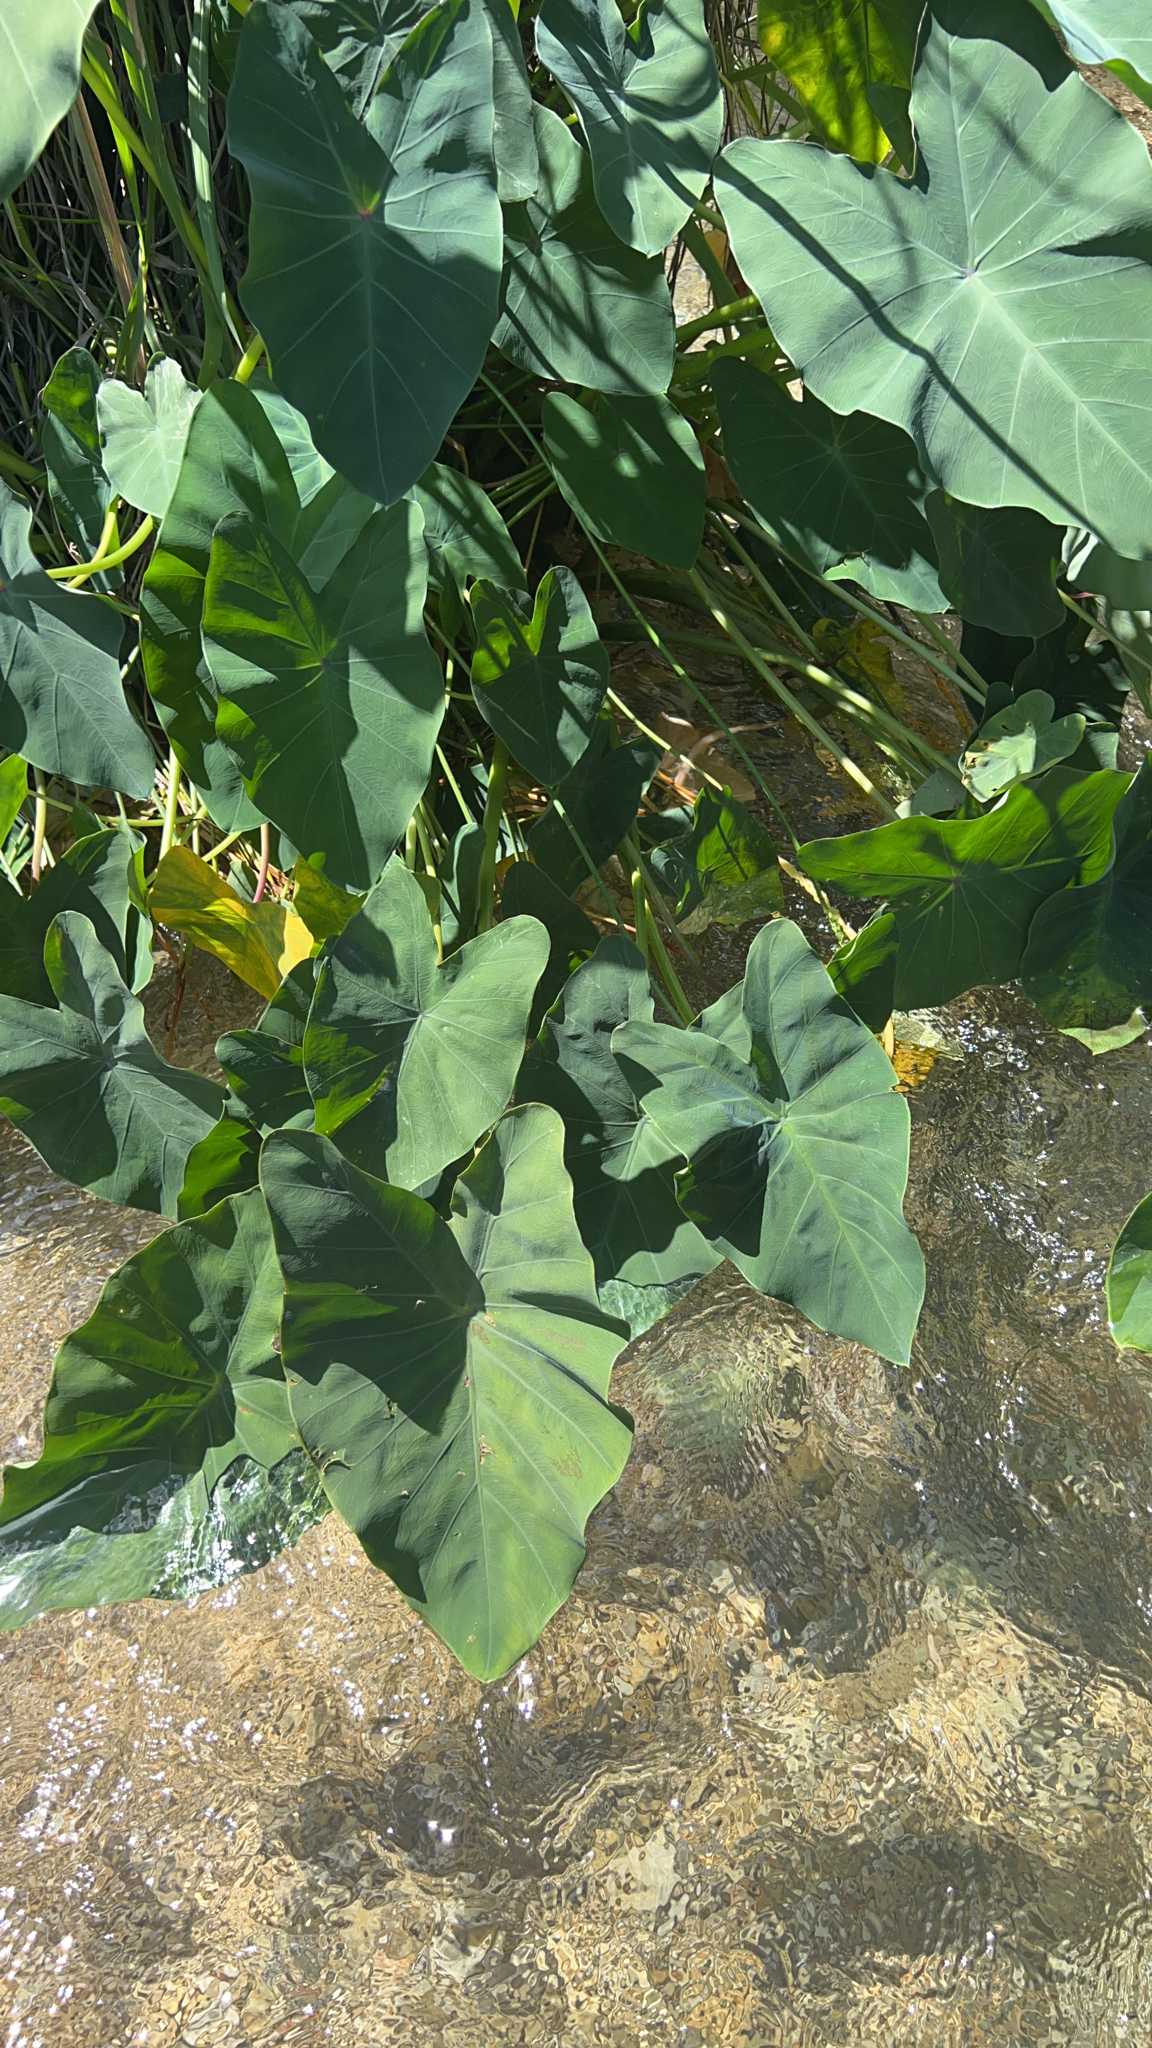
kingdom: Plantae
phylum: Tracheophyta
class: Liliopsida
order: Alismatales
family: Araceae
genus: Colocasia
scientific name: Colocasia esculenta
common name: Taro
